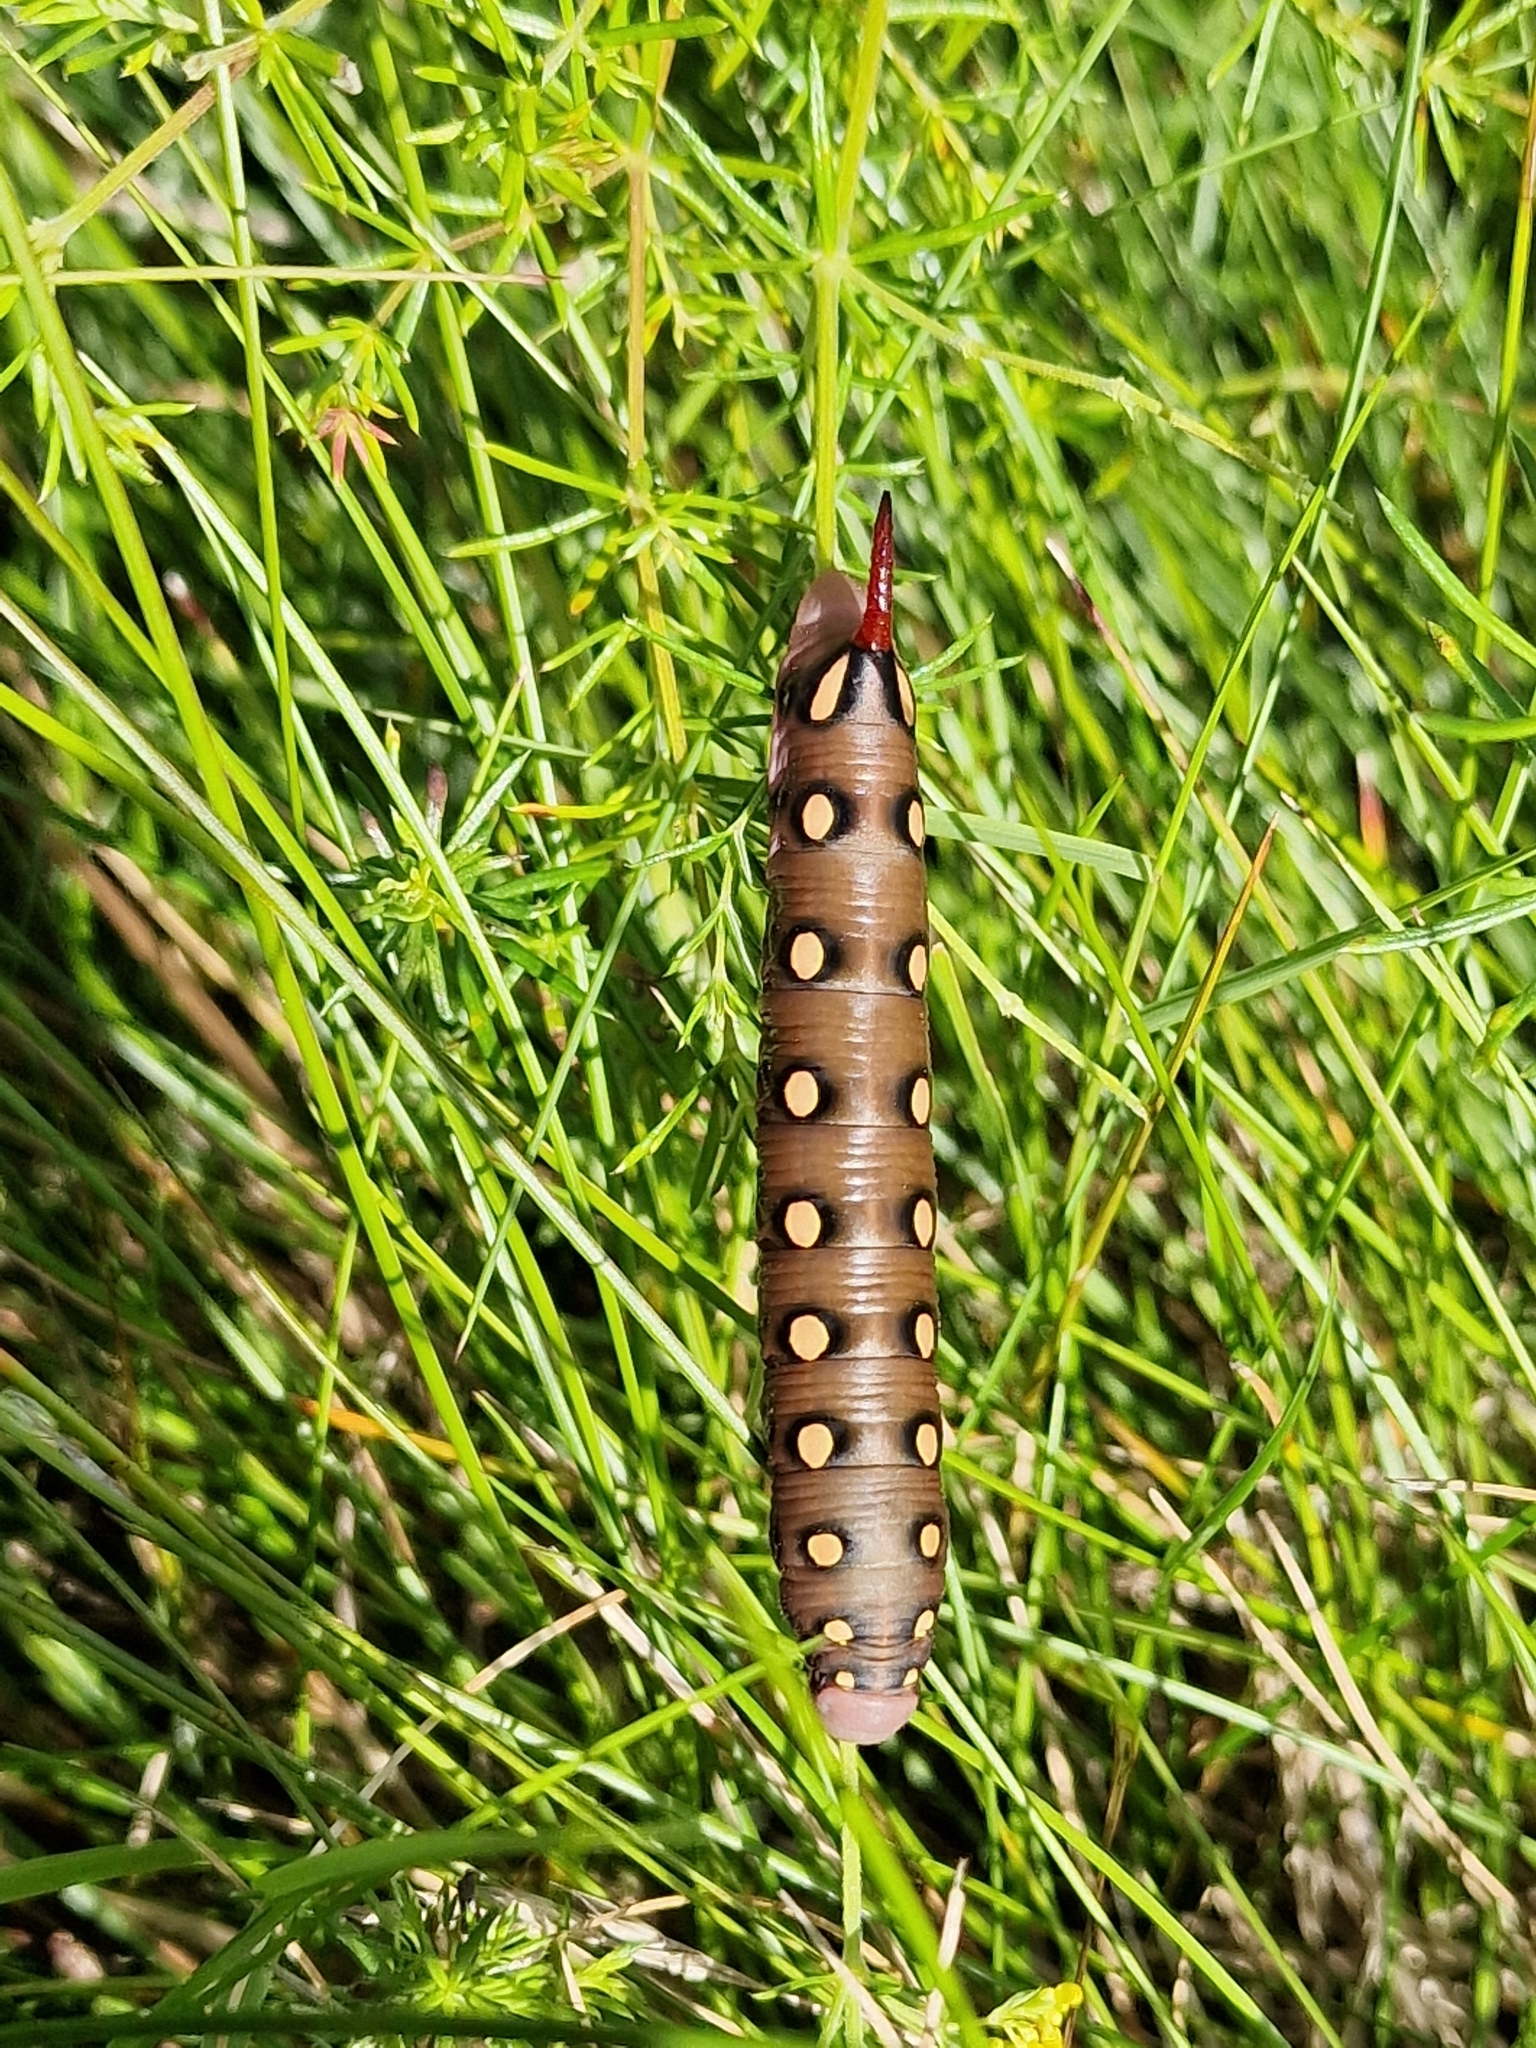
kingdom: Animalia
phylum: Arthropoda
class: Insecta
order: Lepidoptera
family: Sphingidae
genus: Hyles
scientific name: Hyles gallii
